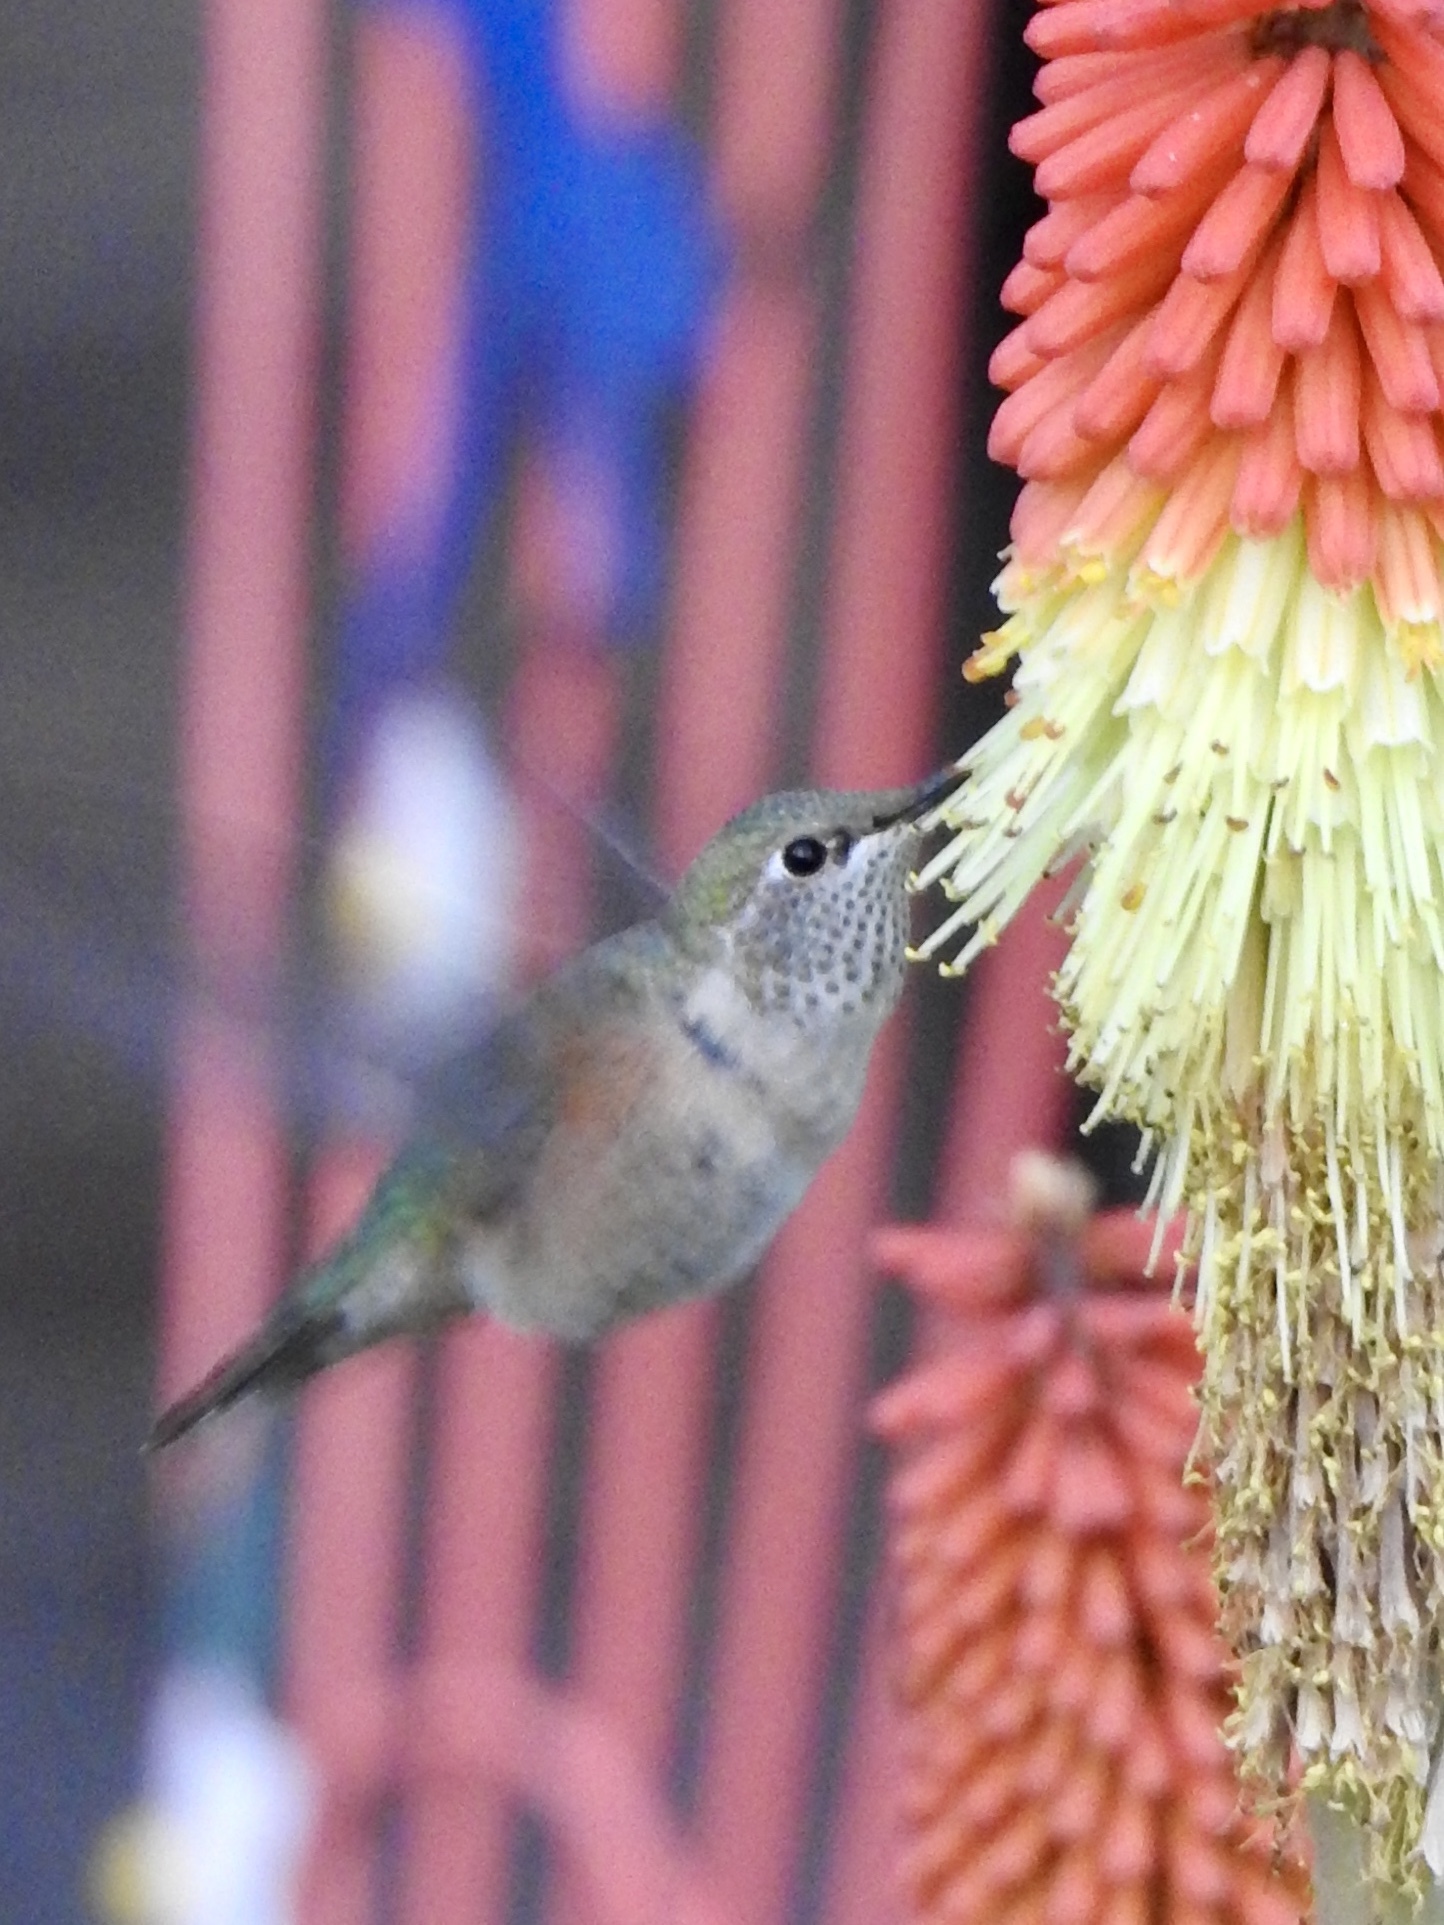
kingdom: Animalia
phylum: Chordata
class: Aves
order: Apodiformes
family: Trochilidae
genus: Selasphorus
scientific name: Selasphorus platycercus
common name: Broad-tailed hummingbird
